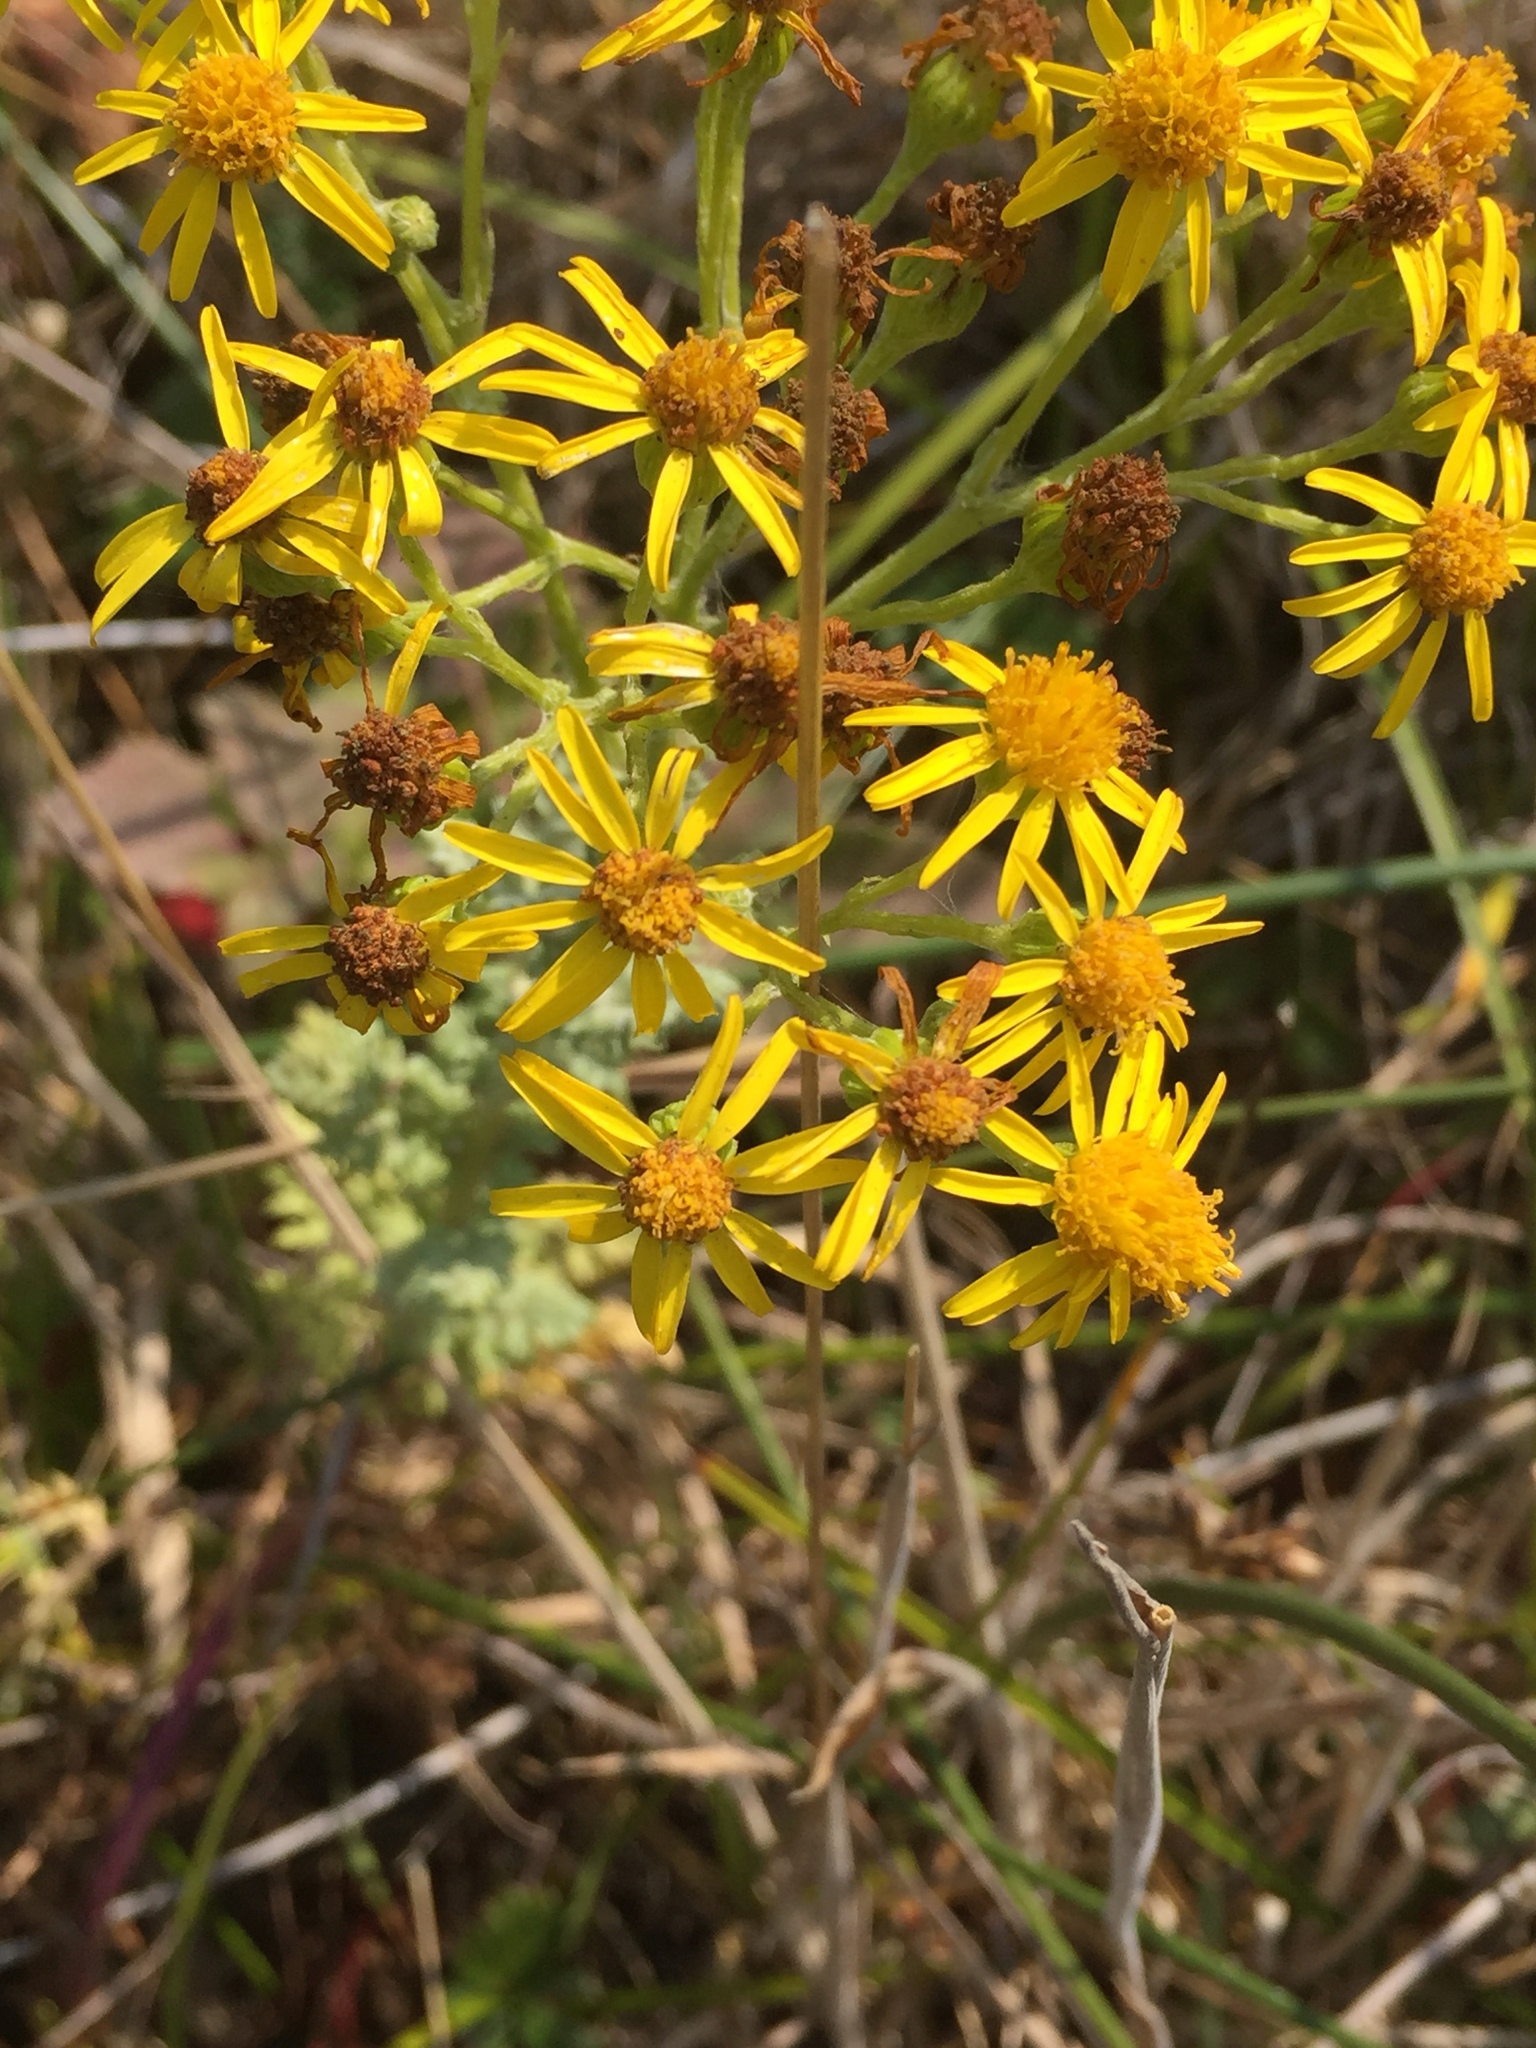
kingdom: Plantae
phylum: Tracheophyta
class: Magnoliopsida
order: Asterales
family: Asteraceae
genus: Jacobaea
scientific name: Jacobaea vulgaris
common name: Stinking willie
